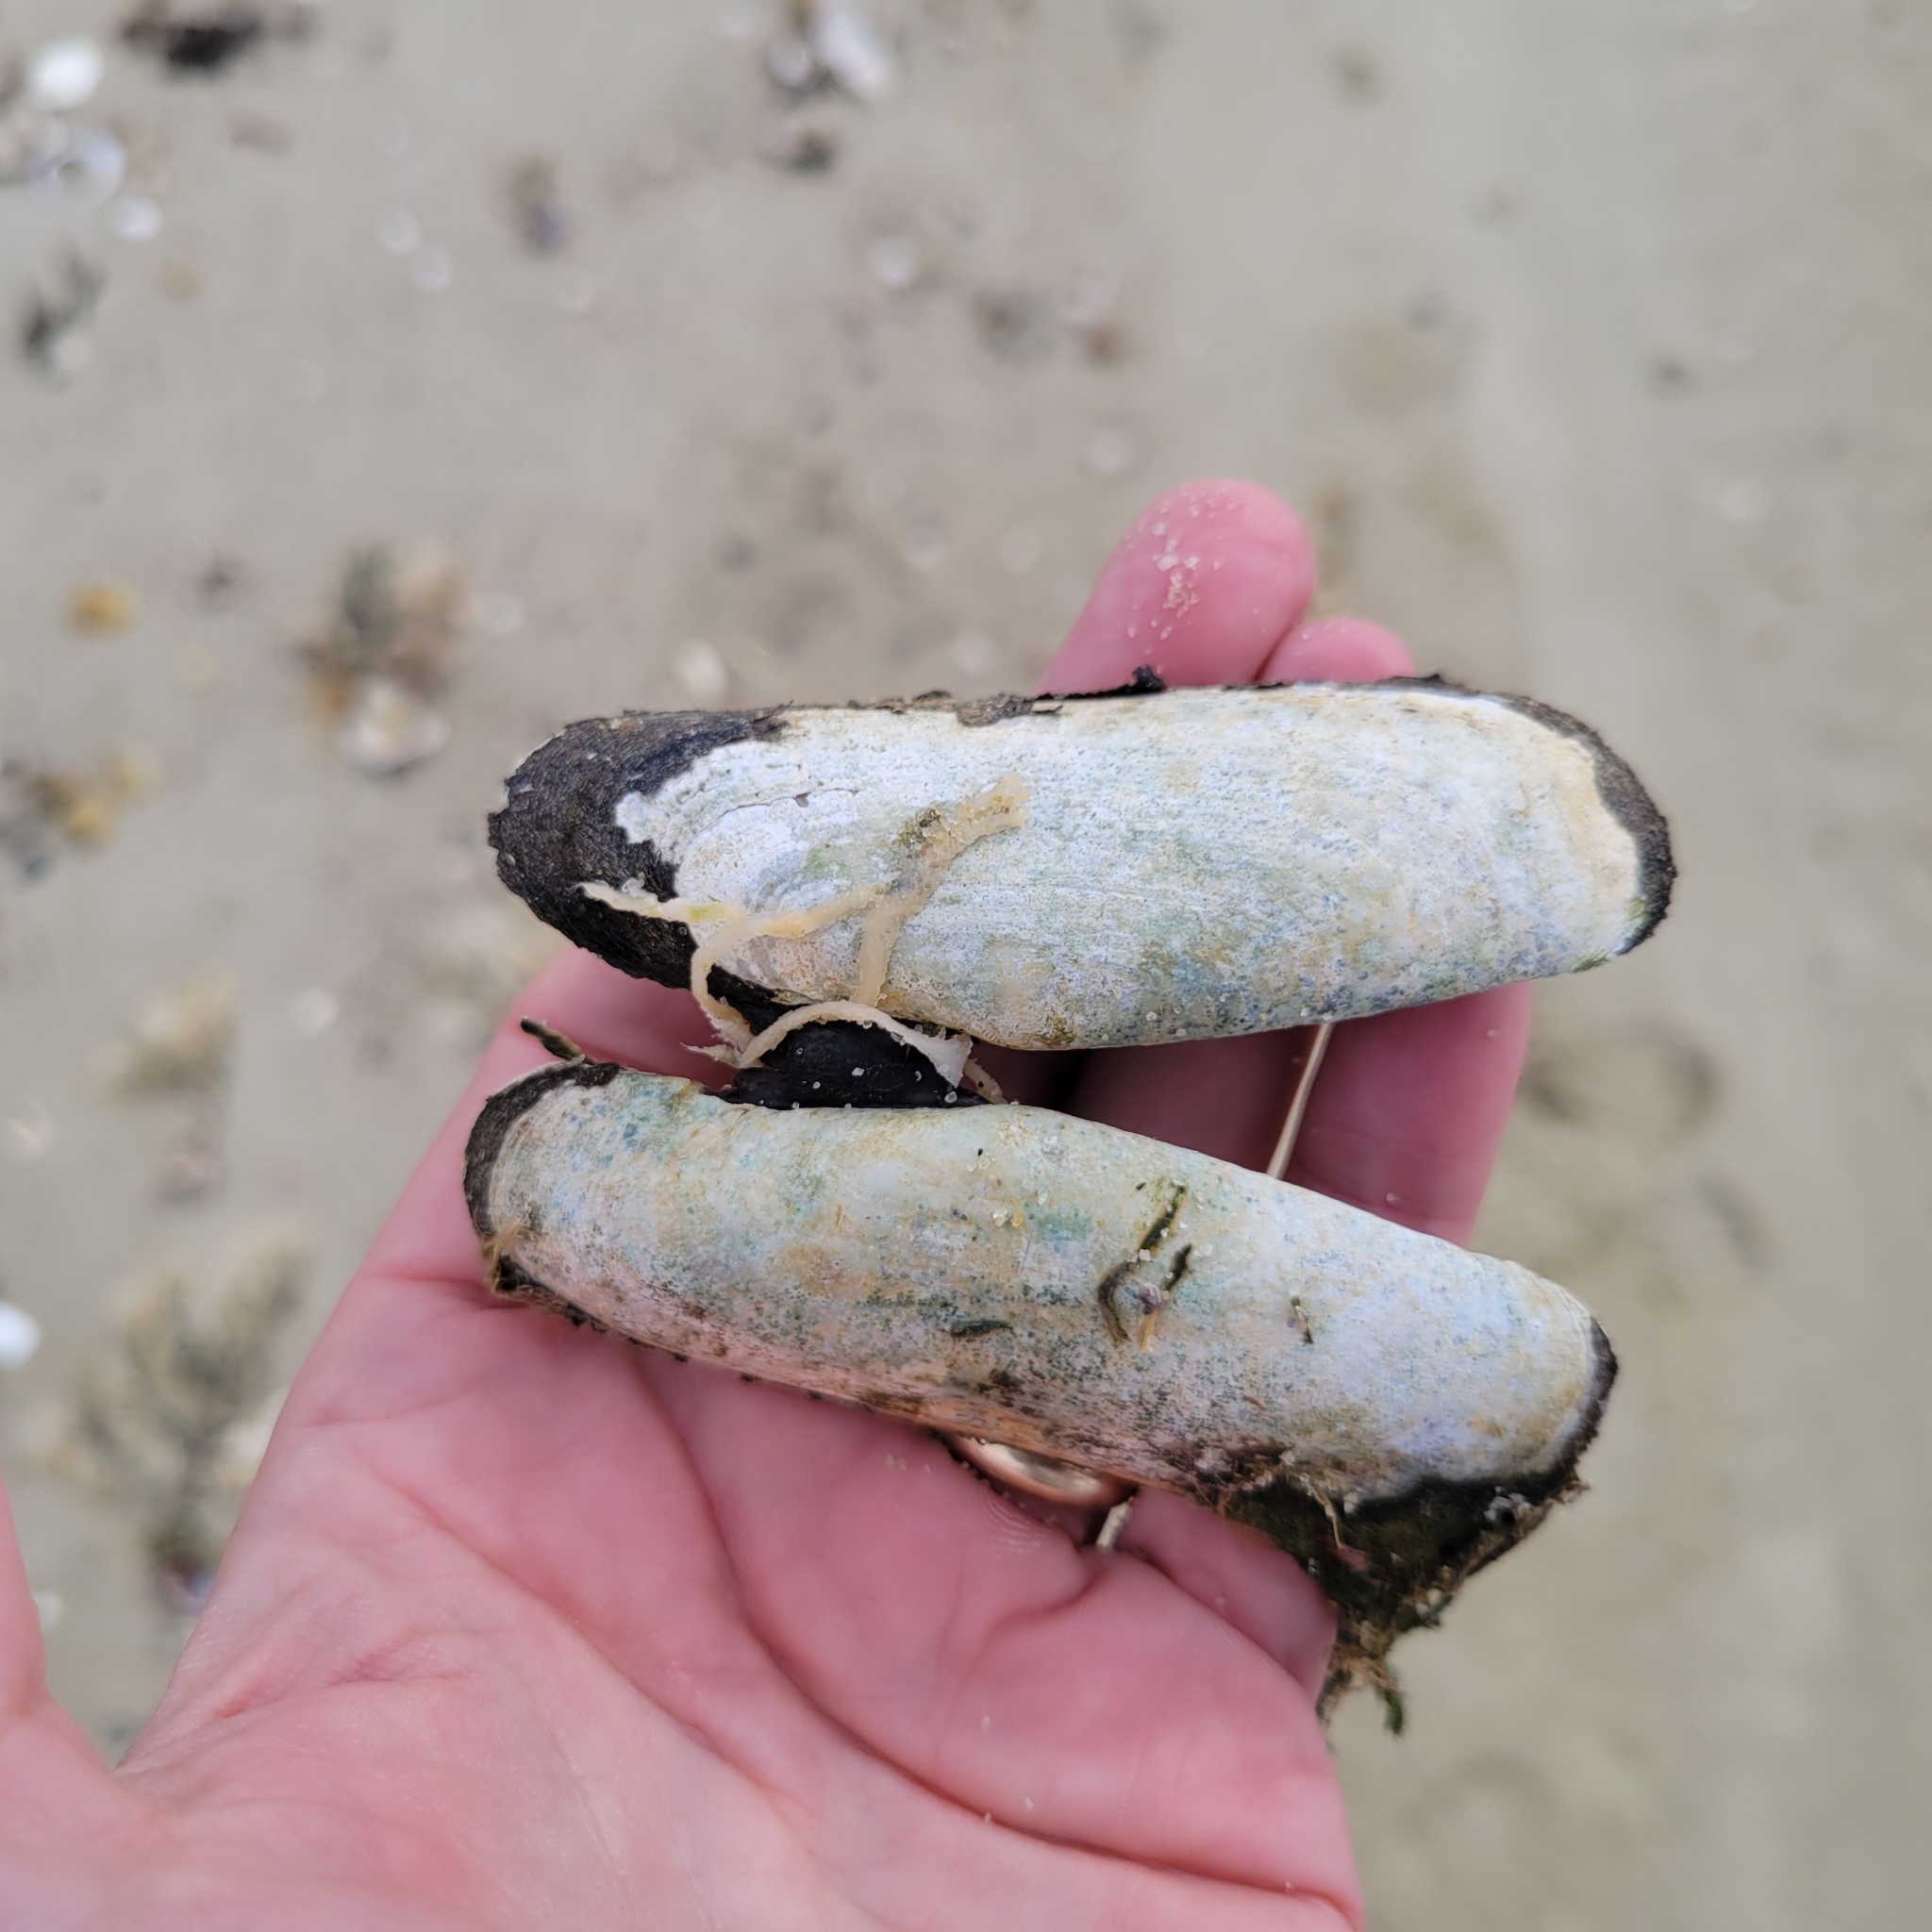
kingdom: Animalia
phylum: Mollusca
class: Bivalvia
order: Cardiida
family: Solecurtidae
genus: Tagelus
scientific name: Tagelus plebeius
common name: Stout tagelus
